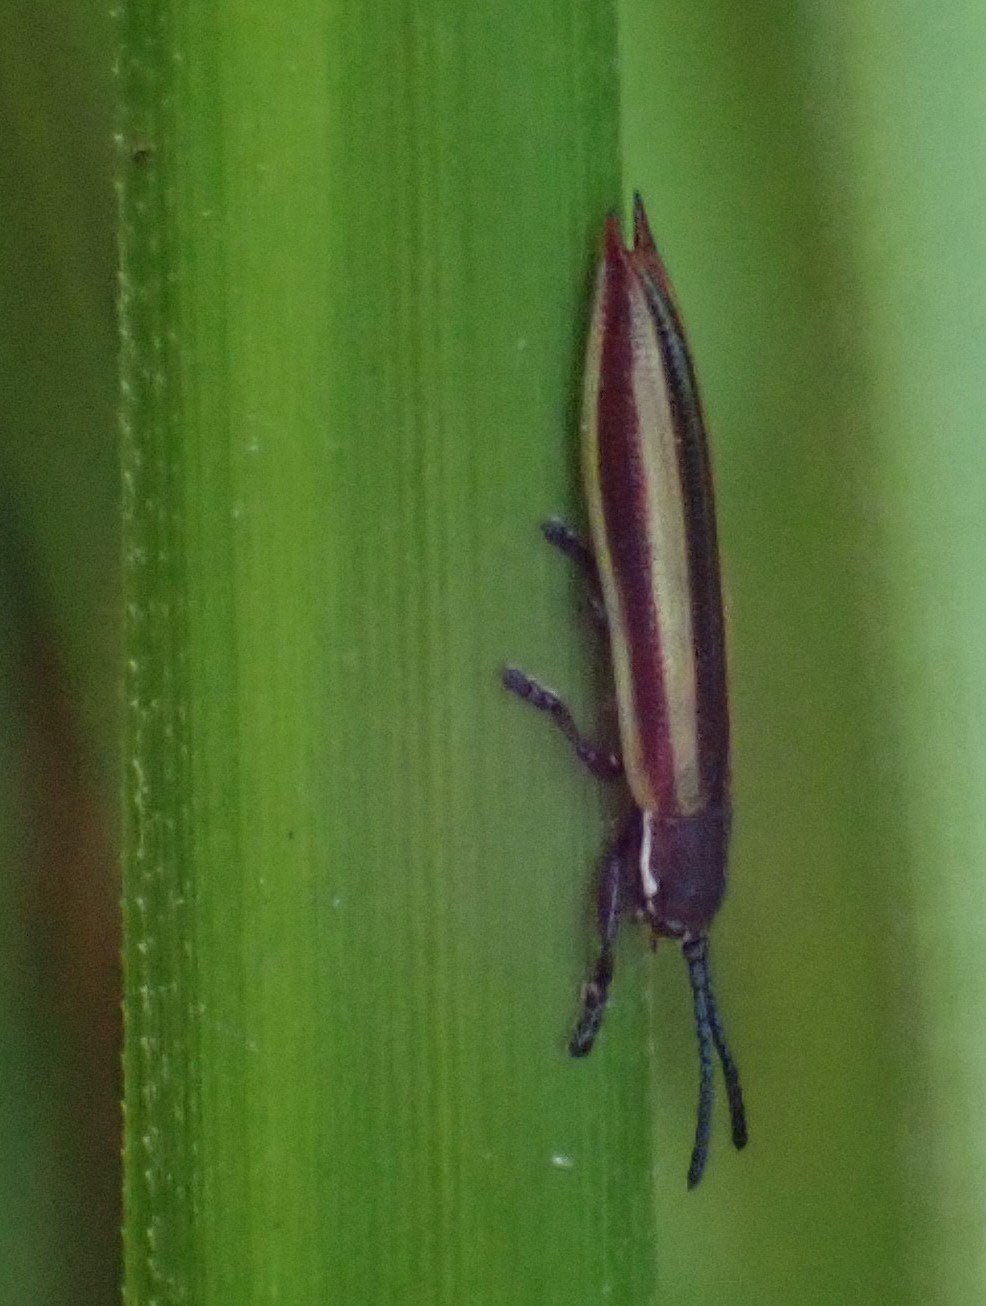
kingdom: Animalia
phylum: Arthropoda
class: Insecta
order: Coleoptera
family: Chrysomelidae
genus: Eurispa
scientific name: Eurispa vittata
